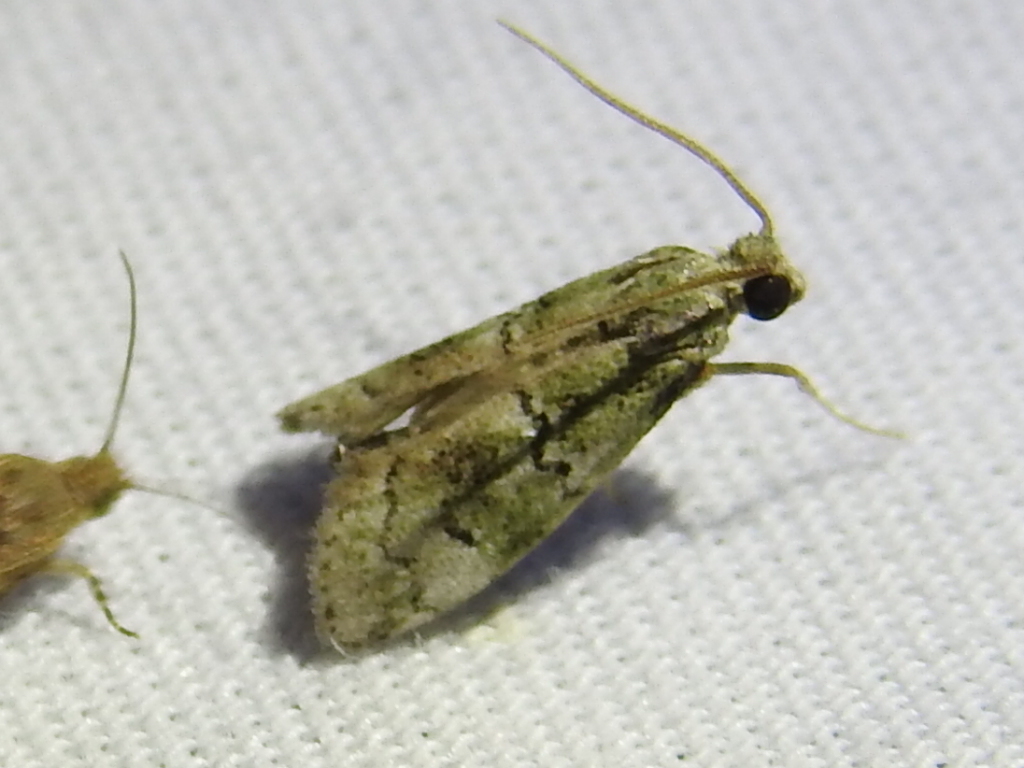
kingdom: Animalia
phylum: Arthropoda
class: Insecta
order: Lepidoptera
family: Pyralidae
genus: Cacotherapia
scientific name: Cacotherapia flexilinealis
